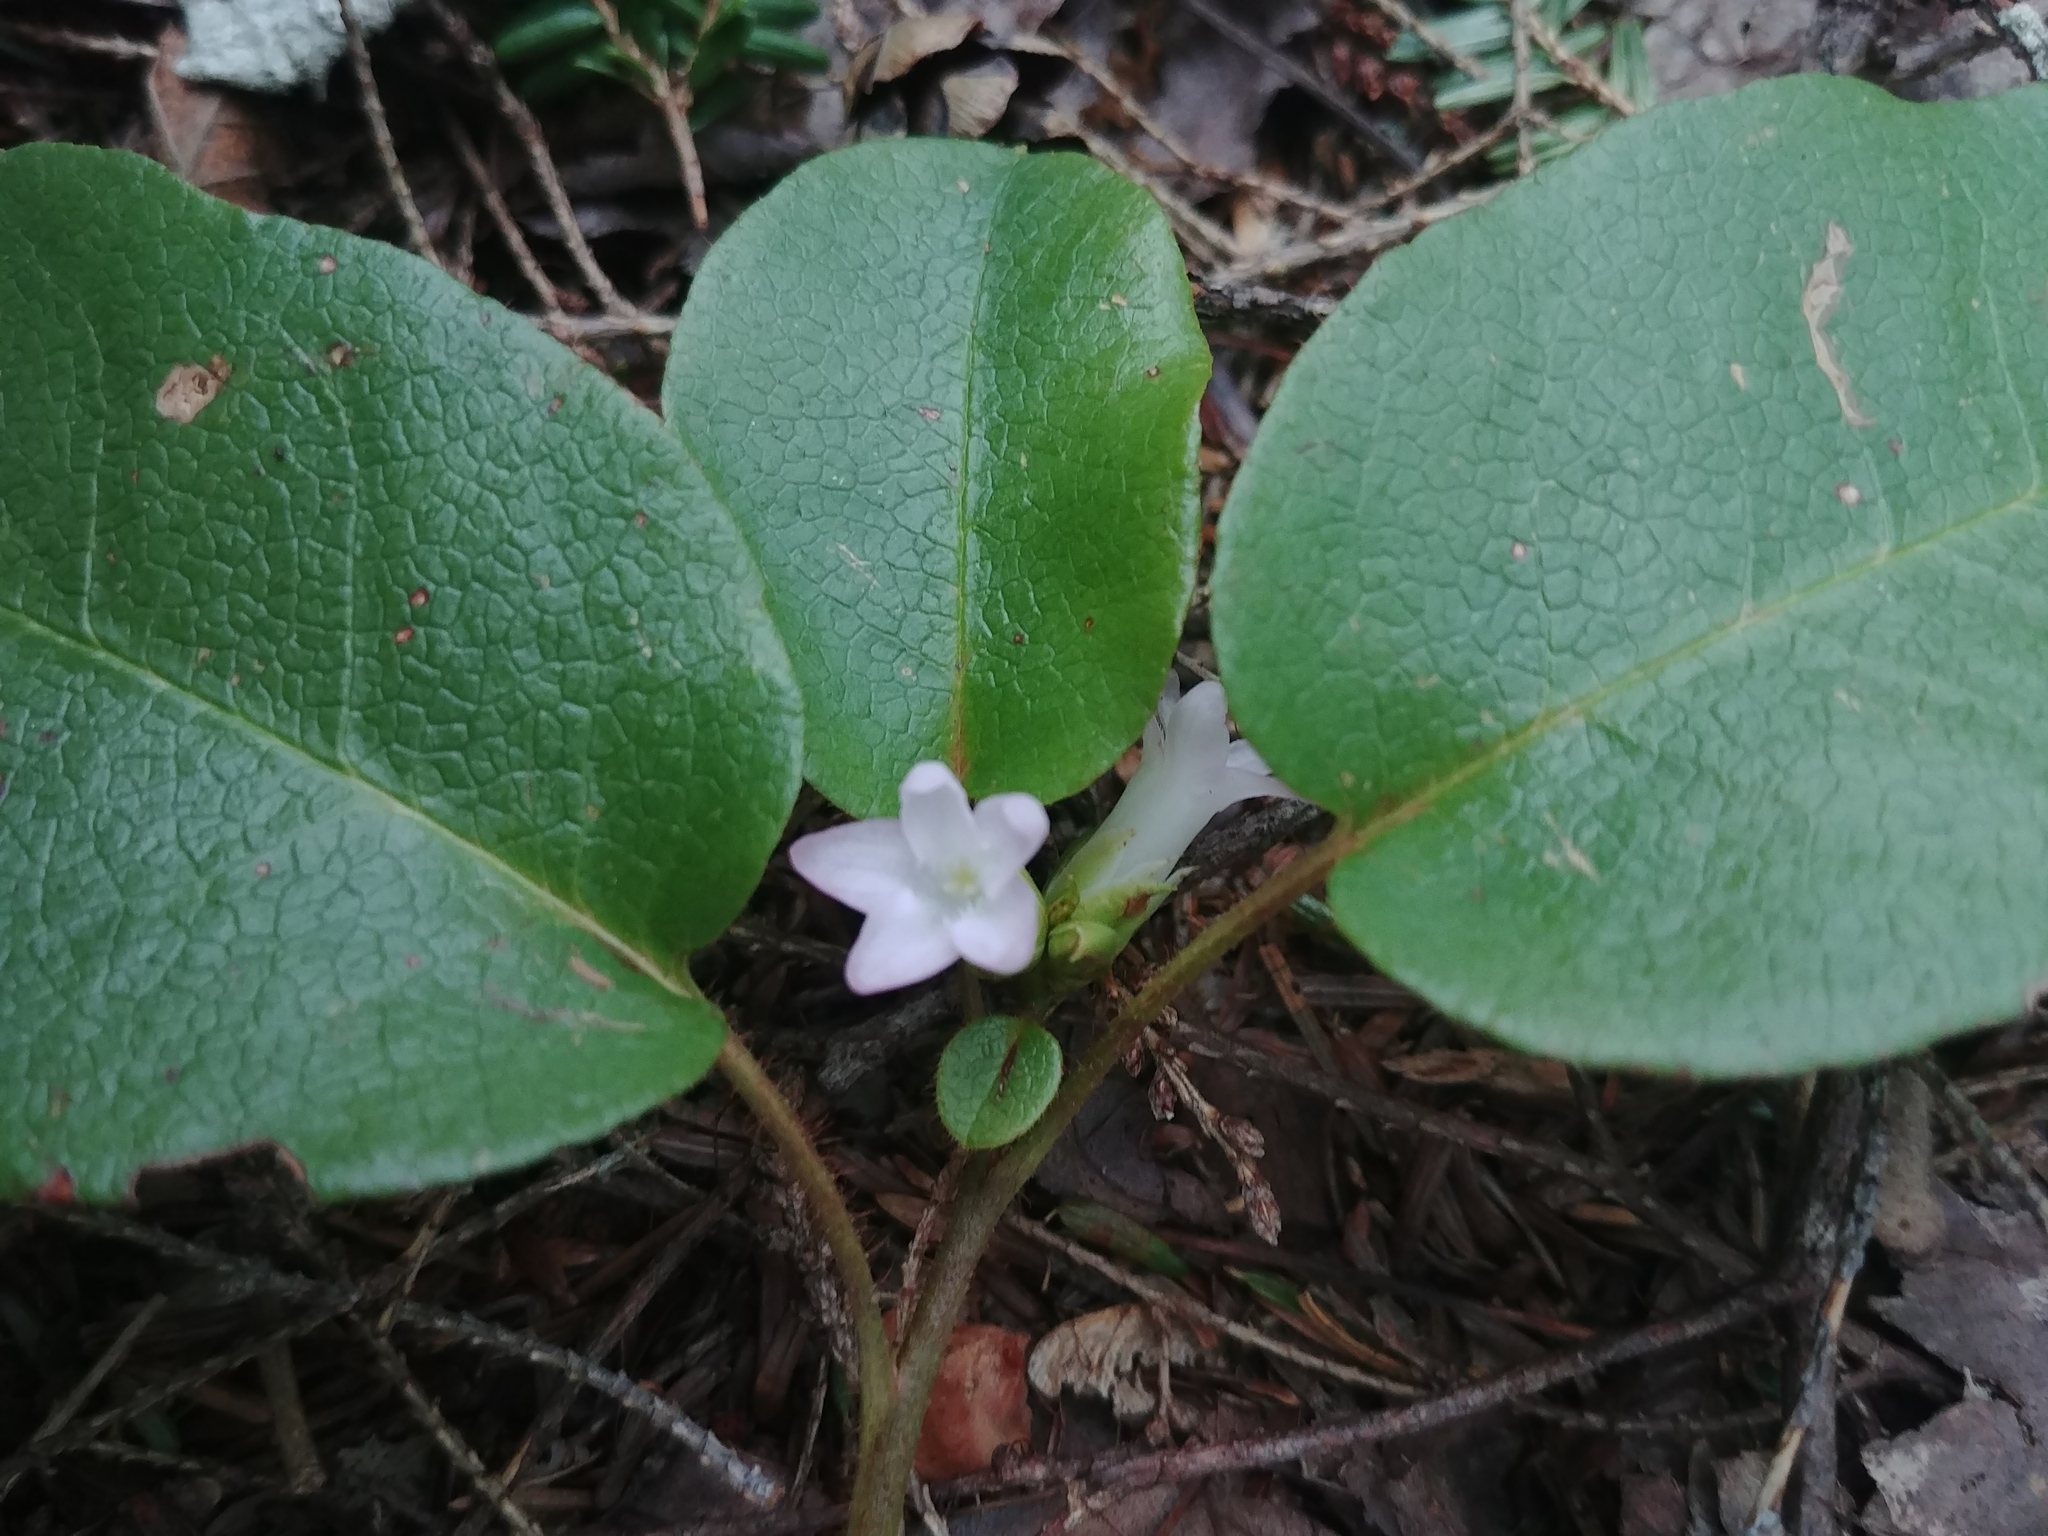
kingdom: Plantae
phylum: Tracheophyta
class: Magnoliopsida
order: Ericales
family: Ericaceae
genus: Epigaea
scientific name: Epigaea repens
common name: Gravelroot
